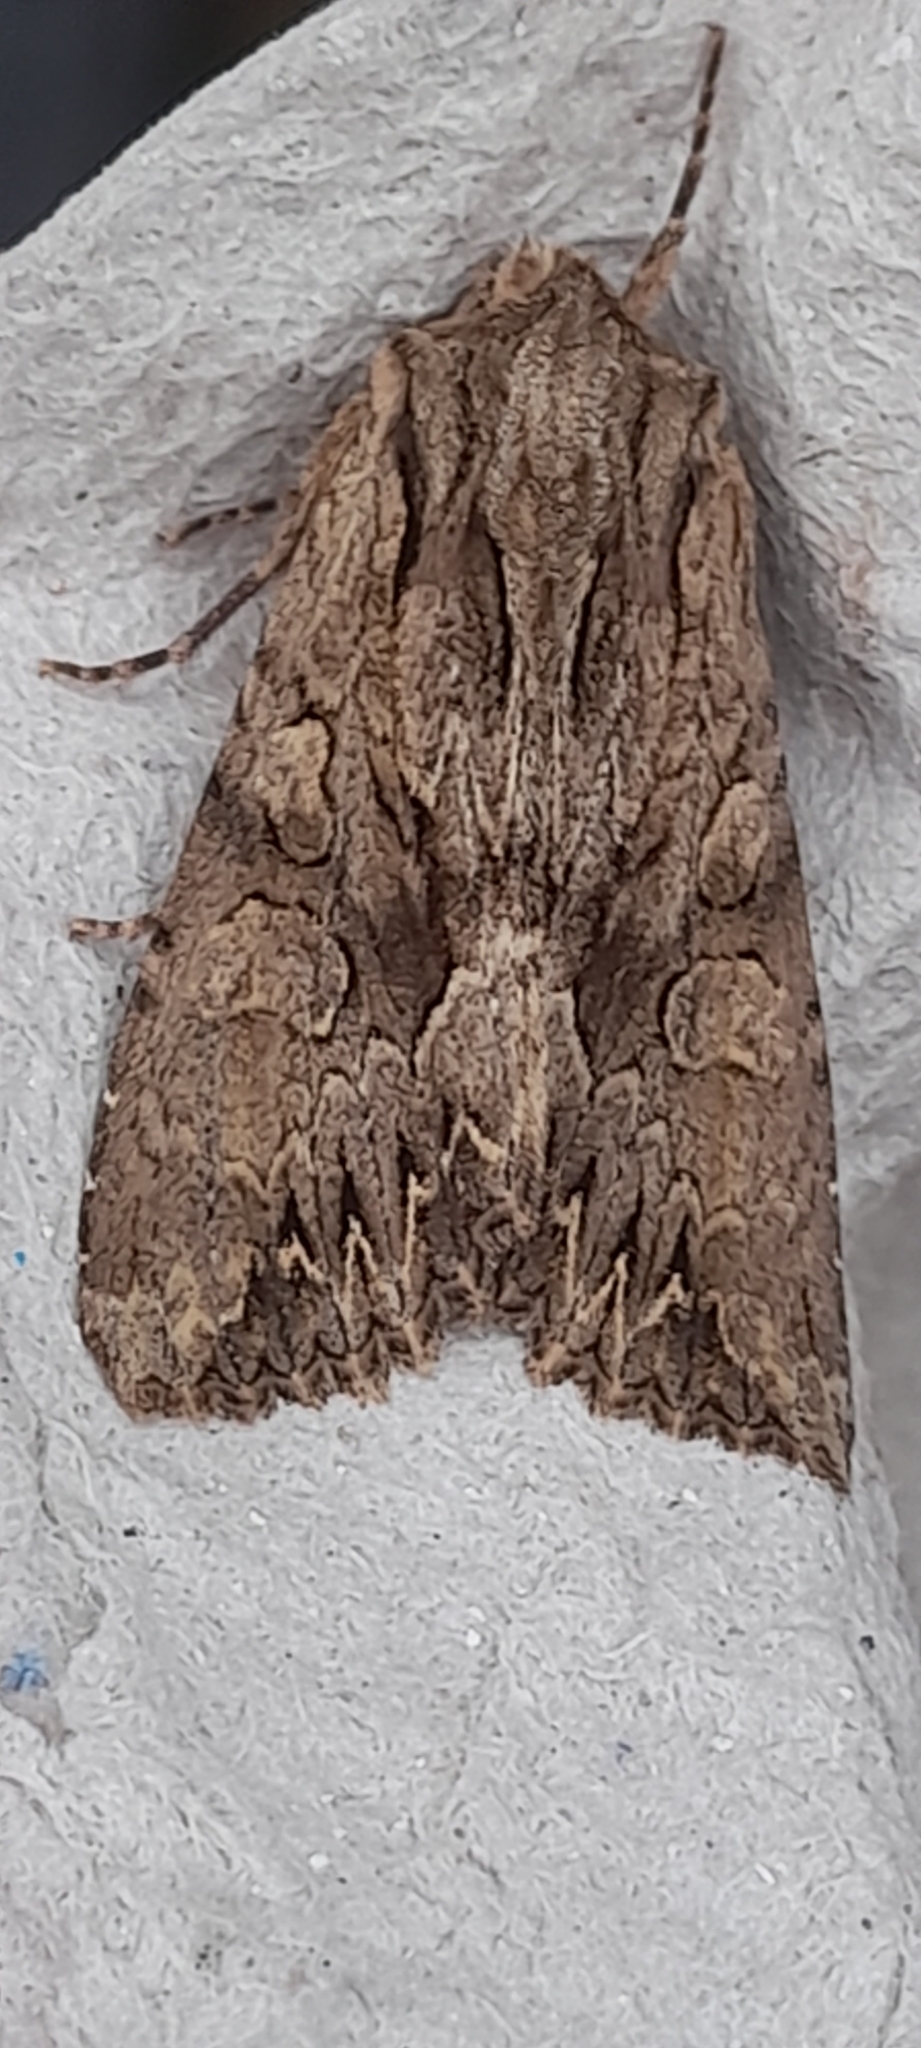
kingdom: Animalia
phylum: Arthropoda
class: Insecta
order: Lepidoptera
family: Noctuidae
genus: Apamea
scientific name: Apamea monoglypha
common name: Dark arches
